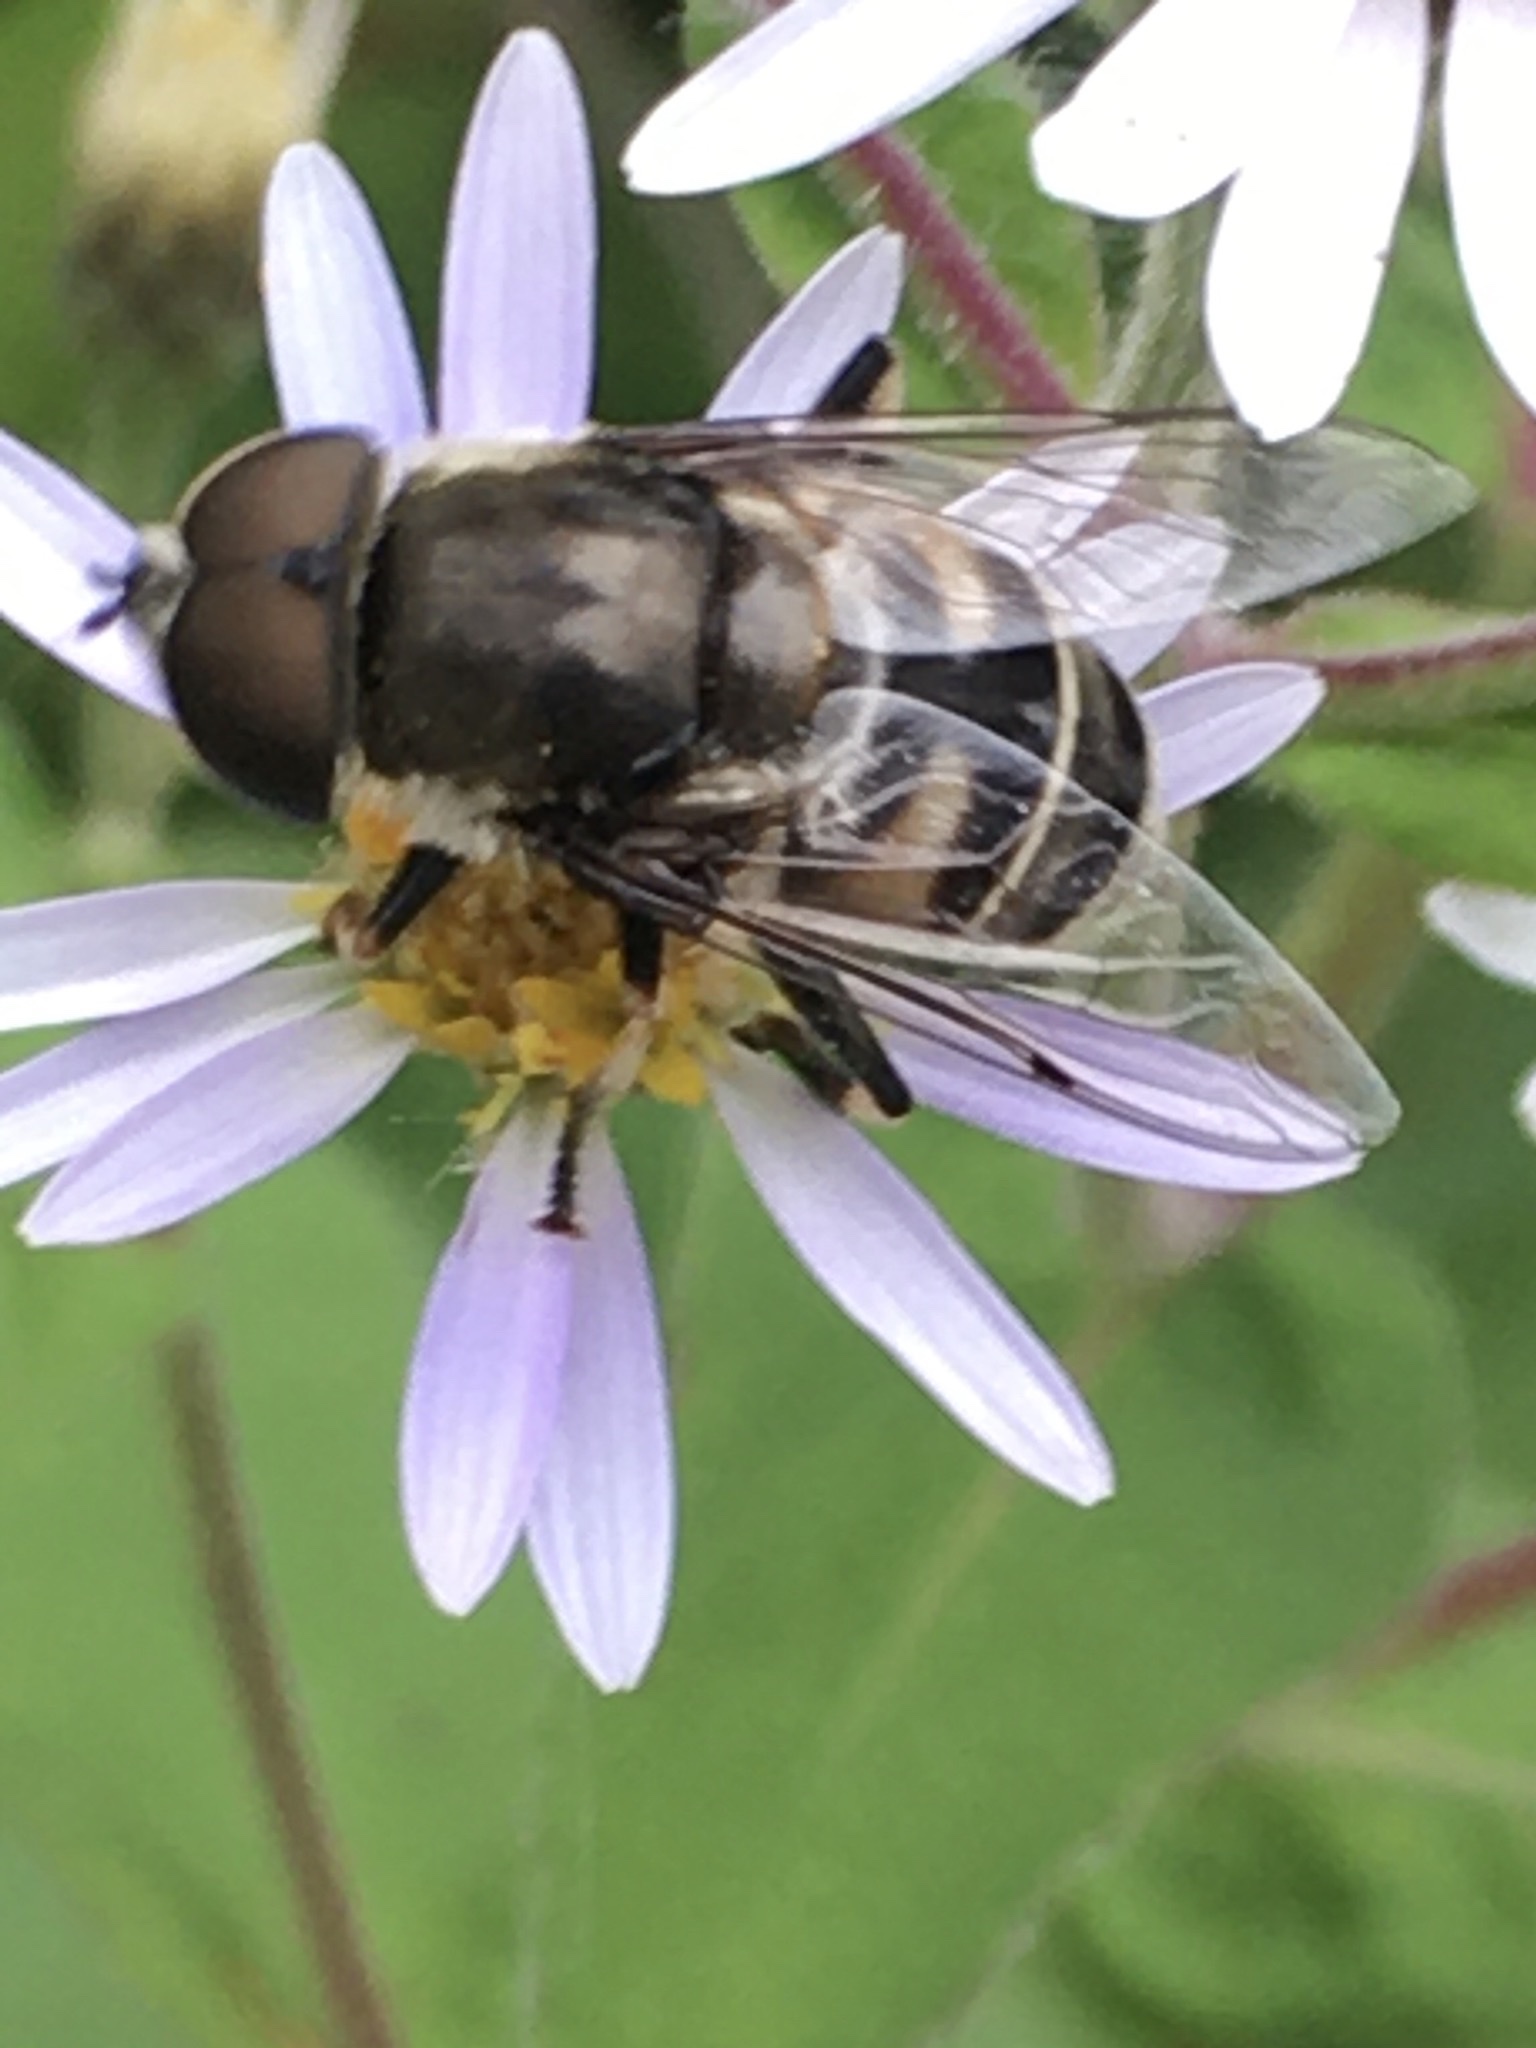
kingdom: Animalia
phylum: Arthropoda
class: Insecta
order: Diptera
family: Syrphidae
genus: Eristalis
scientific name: Eristalis dimidiata
